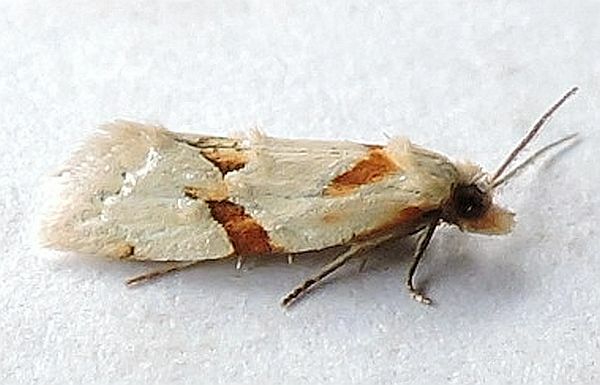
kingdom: Animalia
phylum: Arthropoda
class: Insecta
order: Lepidoptera
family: Tortricidae
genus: Aethes
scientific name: Aethes baloghi
